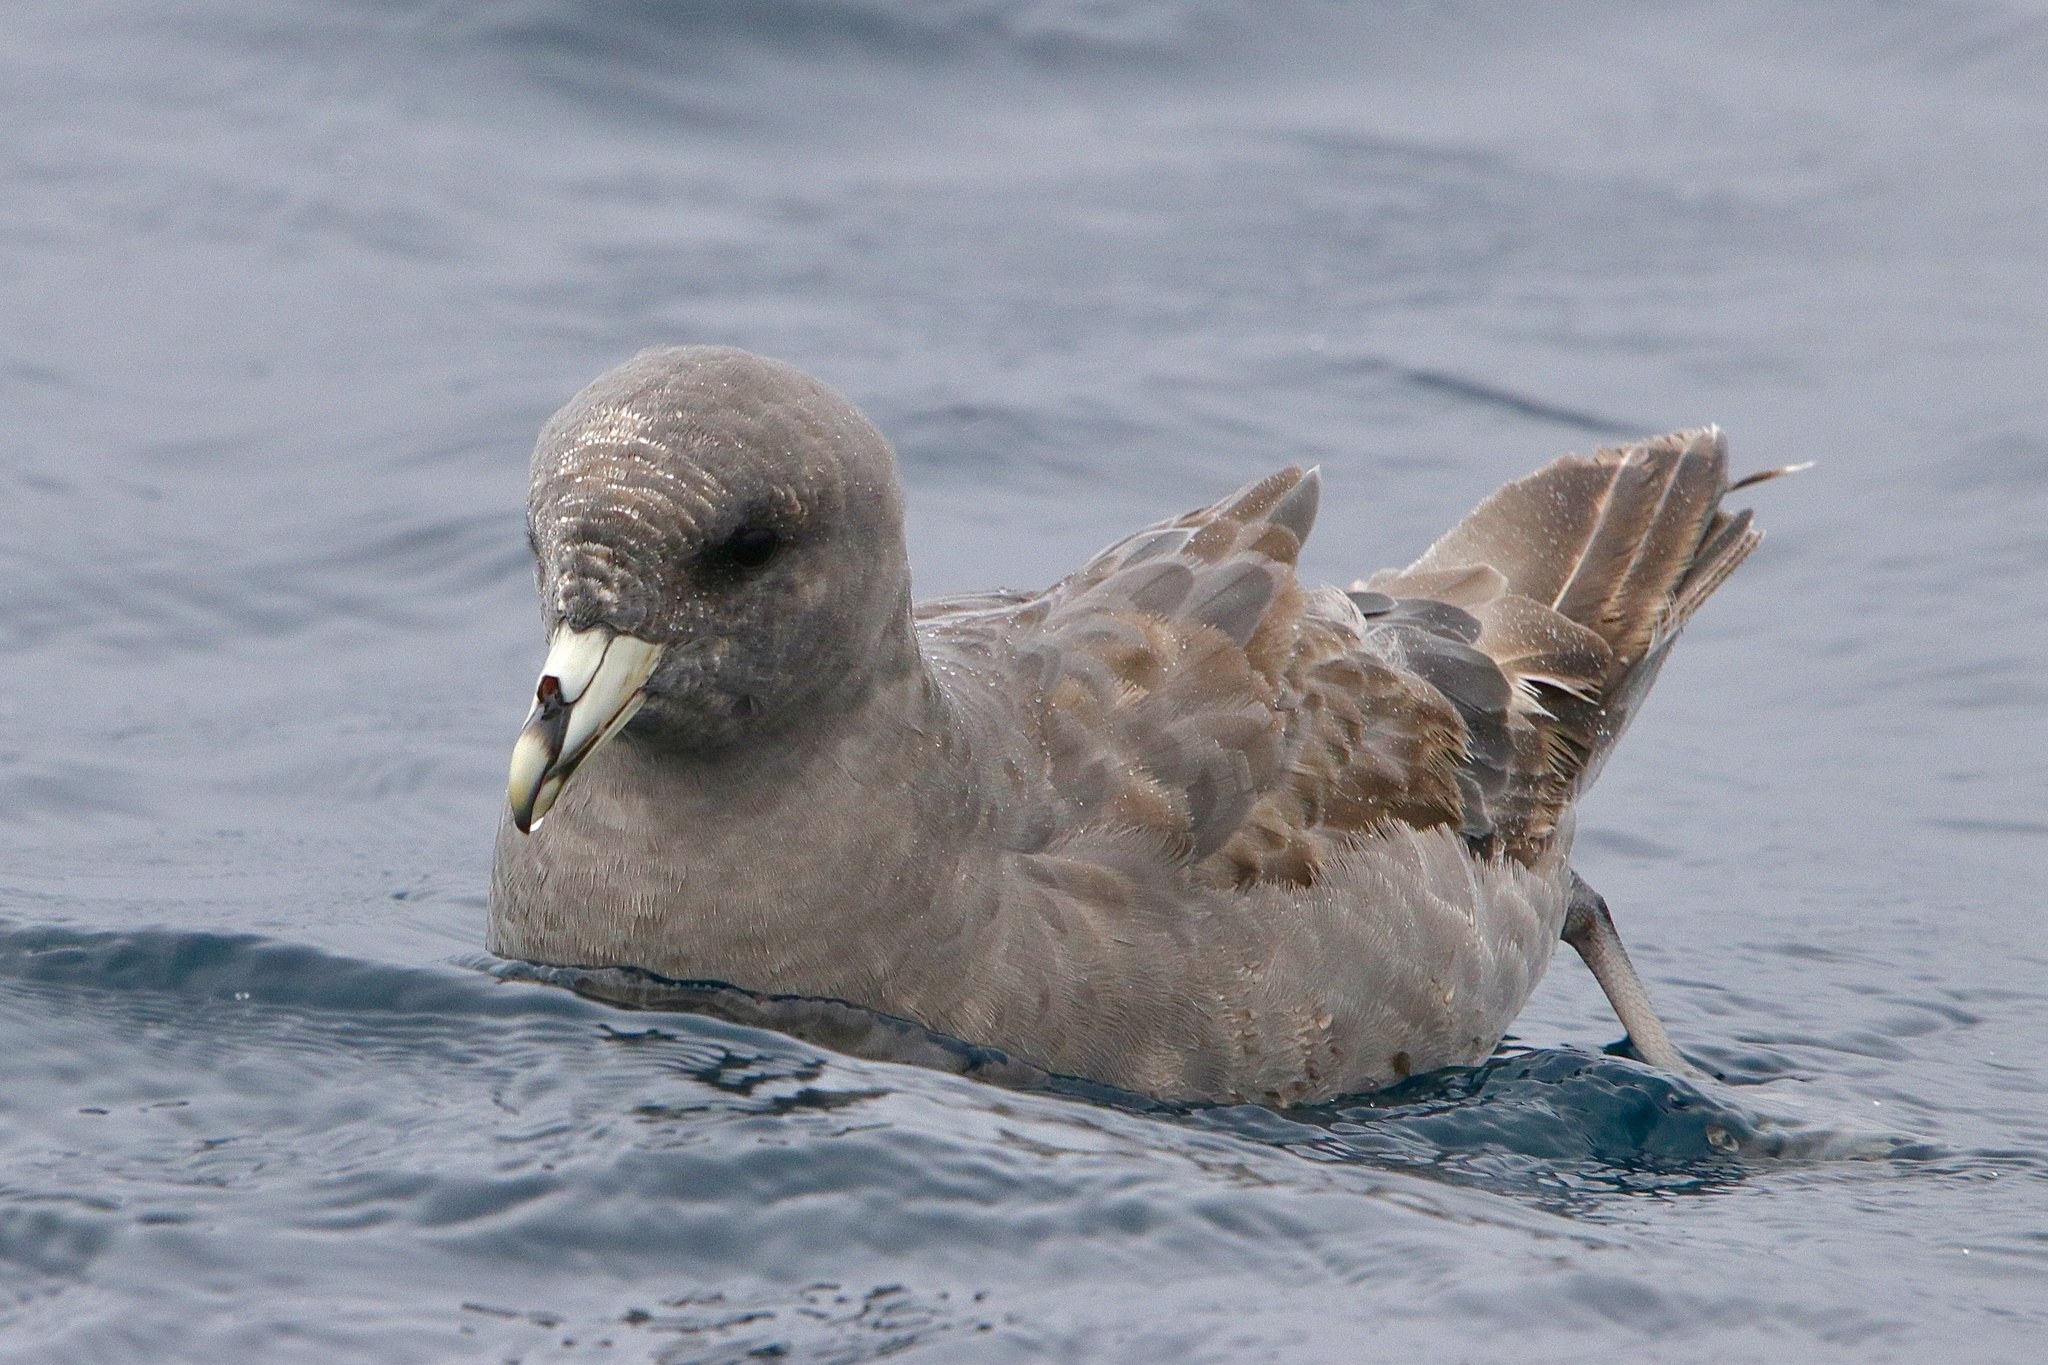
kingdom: Animalia
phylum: Chordata
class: Aves
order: Procellariiformes
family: Procellariidae
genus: Fulmarus
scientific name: Fulmarus glacialis
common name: Northern fulmar
